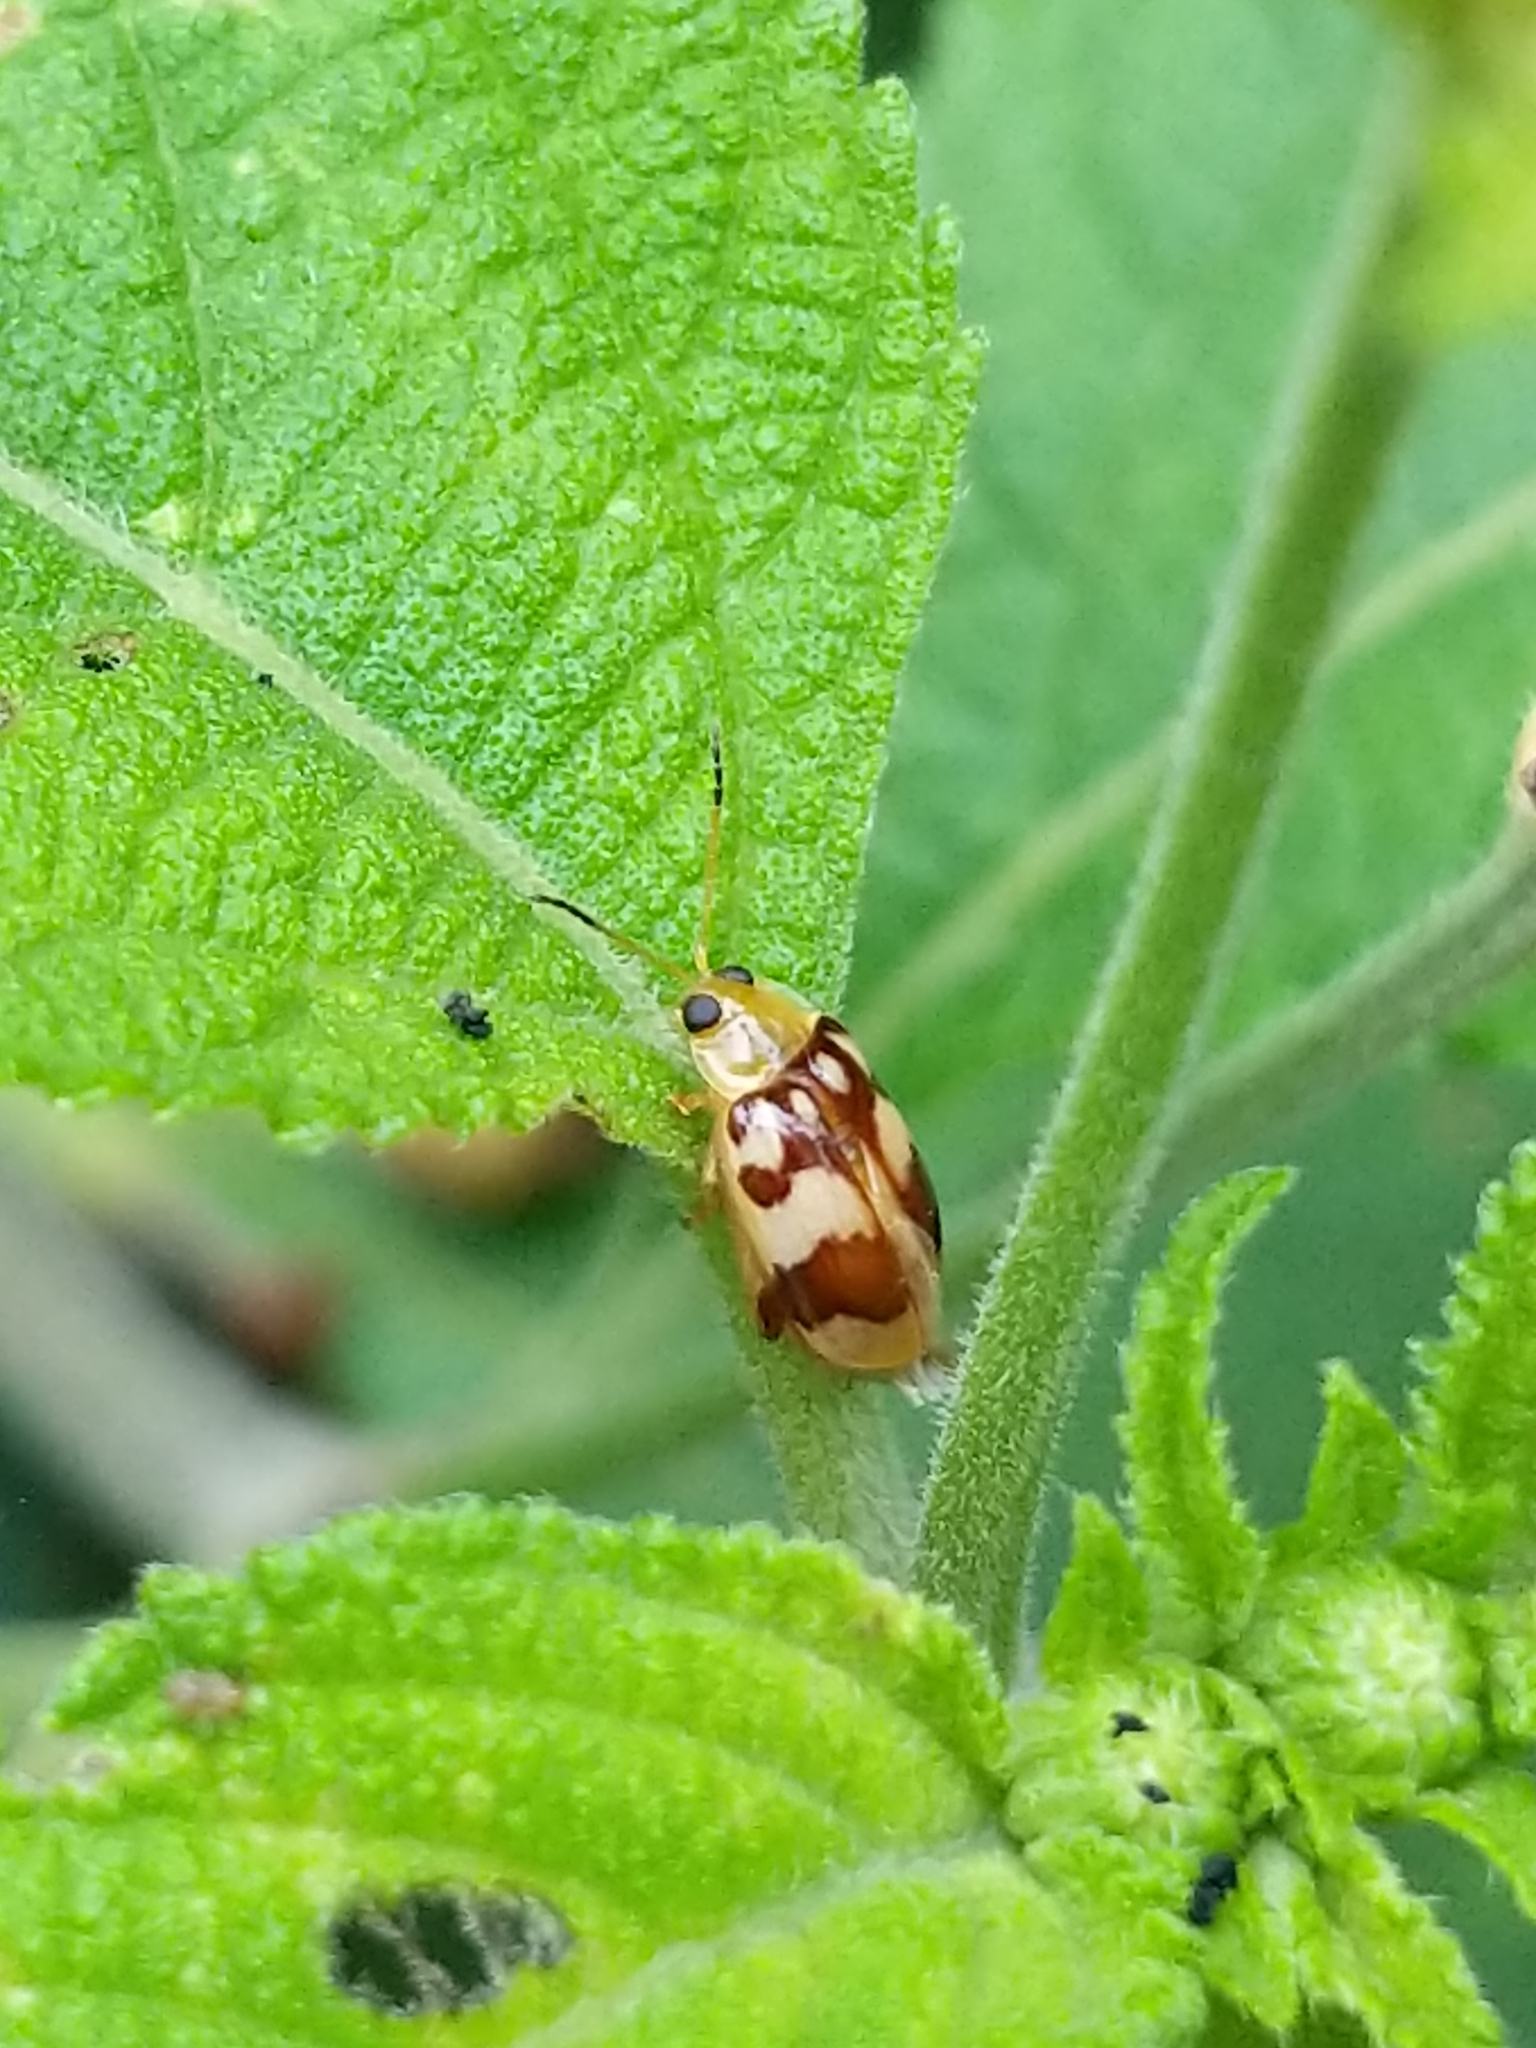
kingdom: Animalia
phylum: Arthropoda
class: Insecta
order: Coleoptera
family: Chrysomelidae
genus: Walterianella
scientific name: Walterianella
